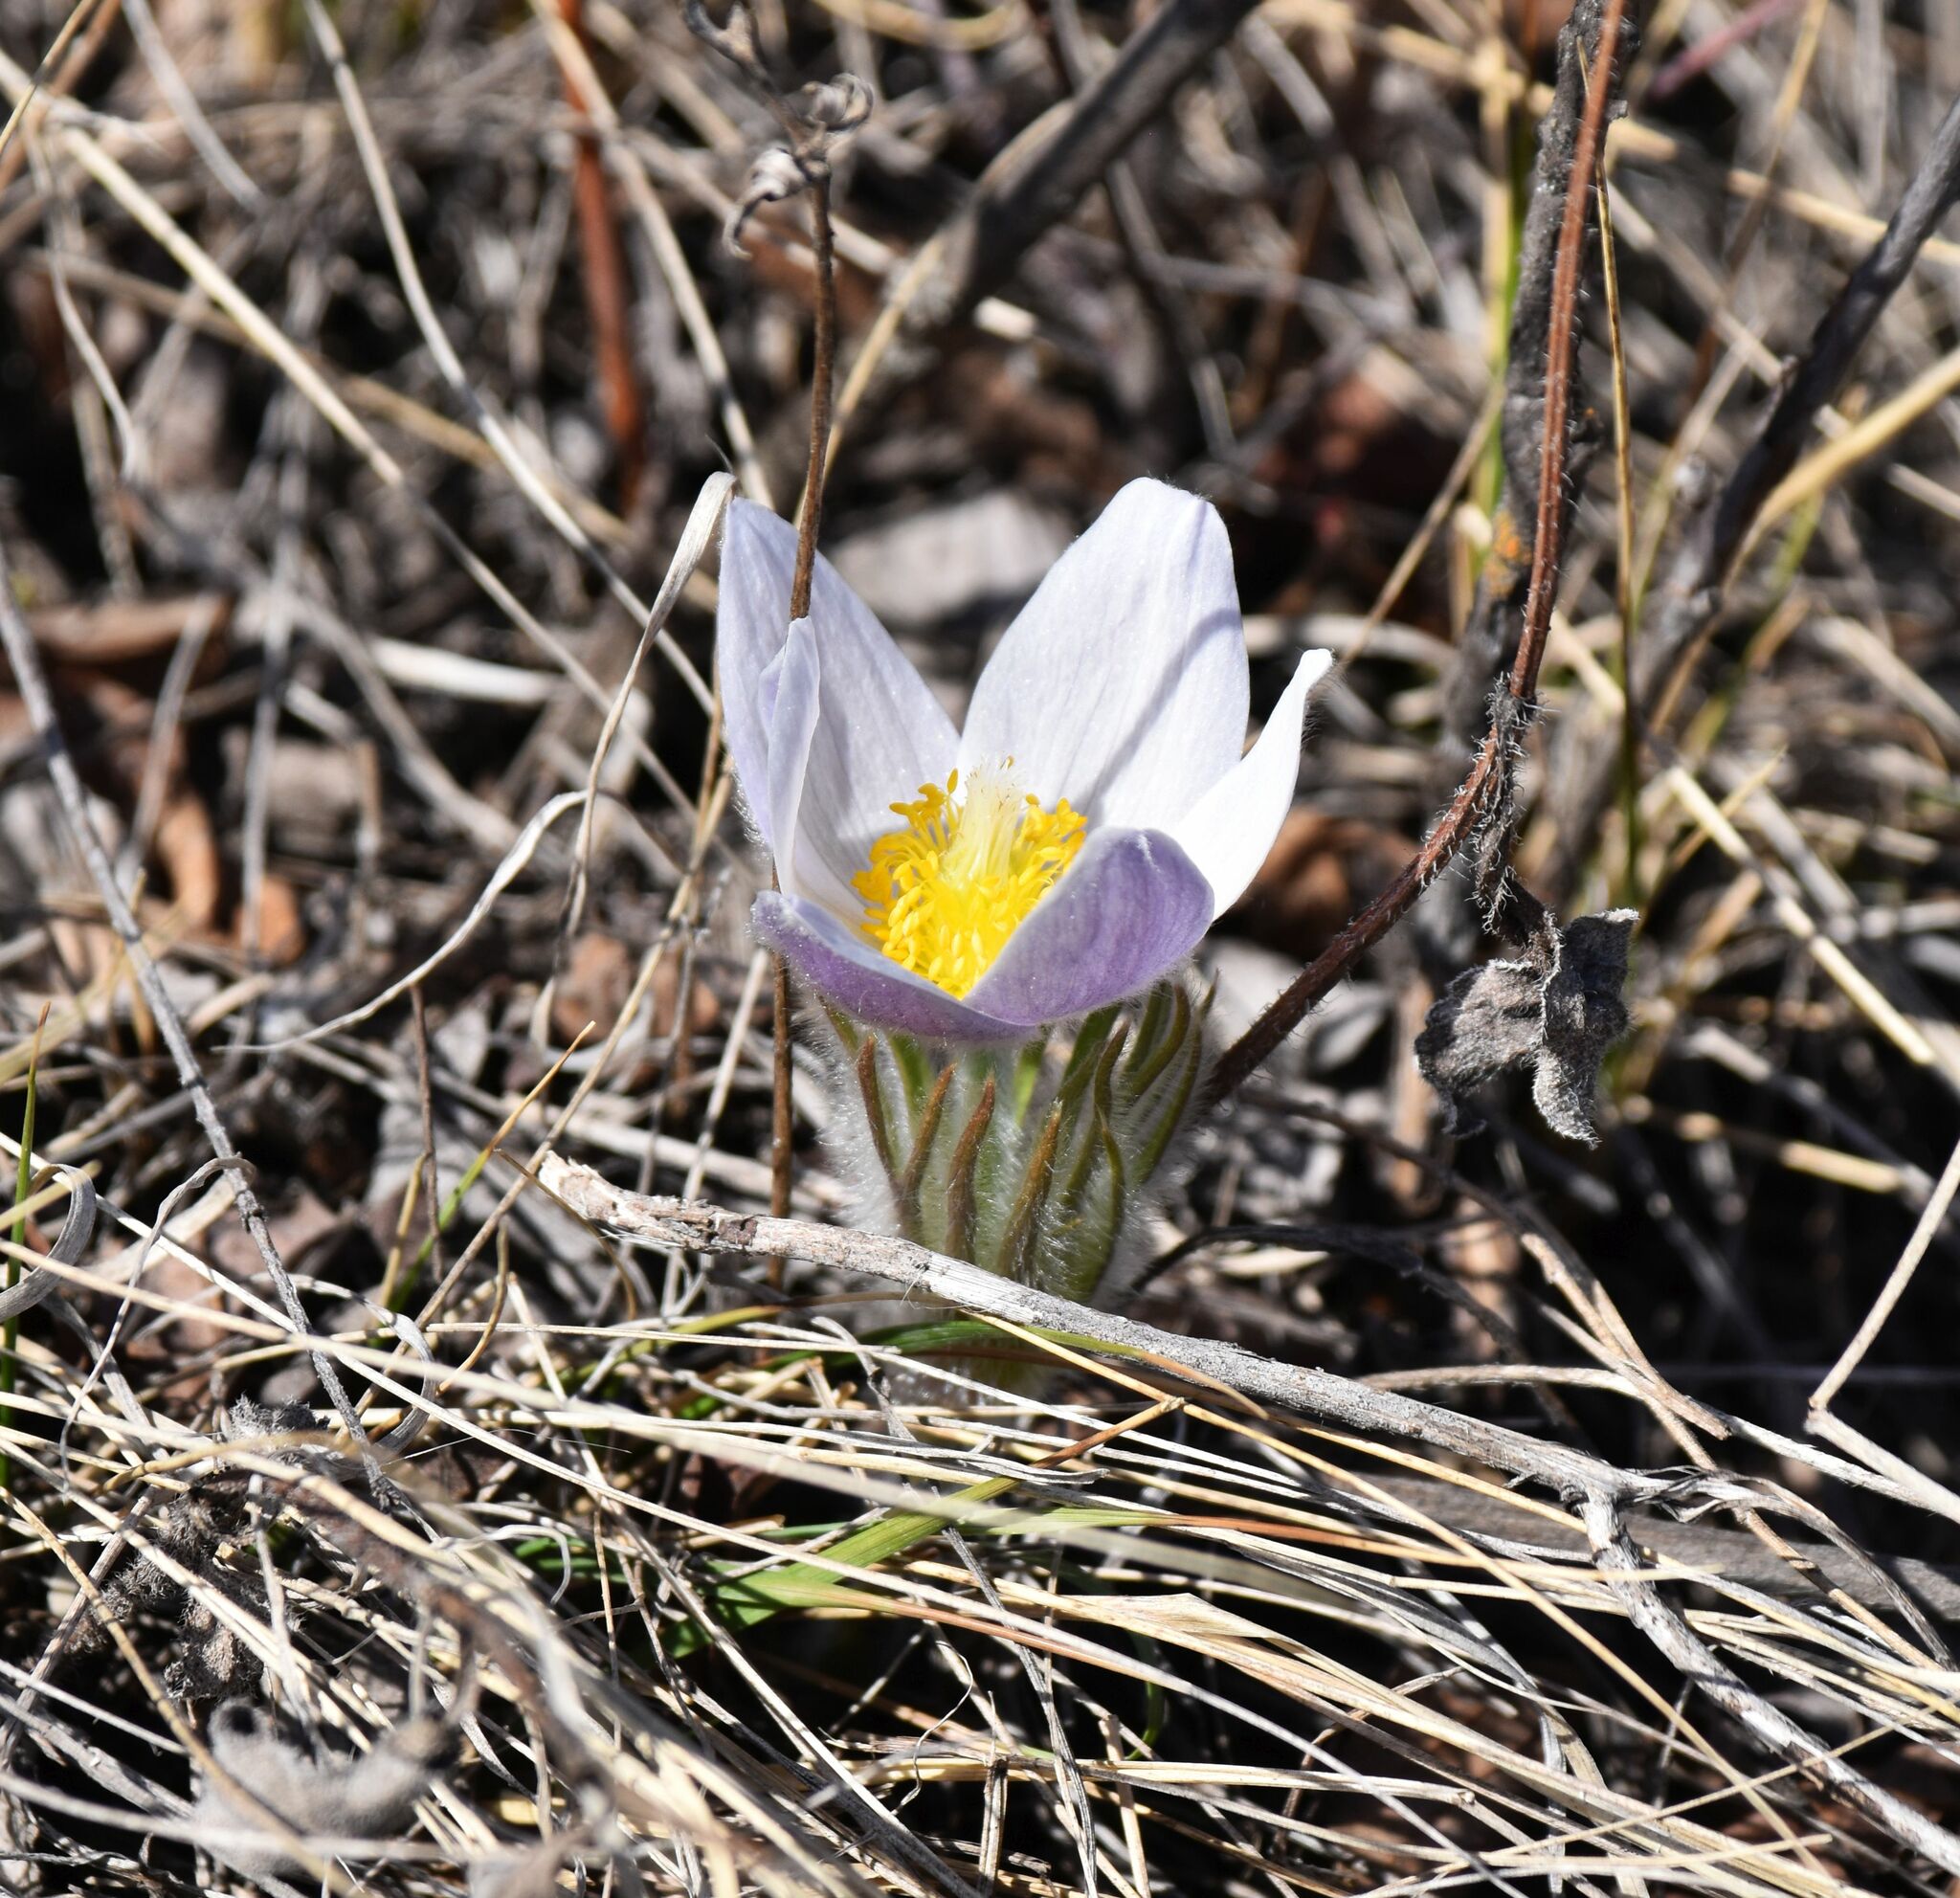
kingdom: Plantae
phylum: Tracheophyta
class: Magnoliopsida
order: Ranunculales
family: Ranunculaceae
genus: Pulsatilla
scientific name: Pulsatilla nuttalliana
